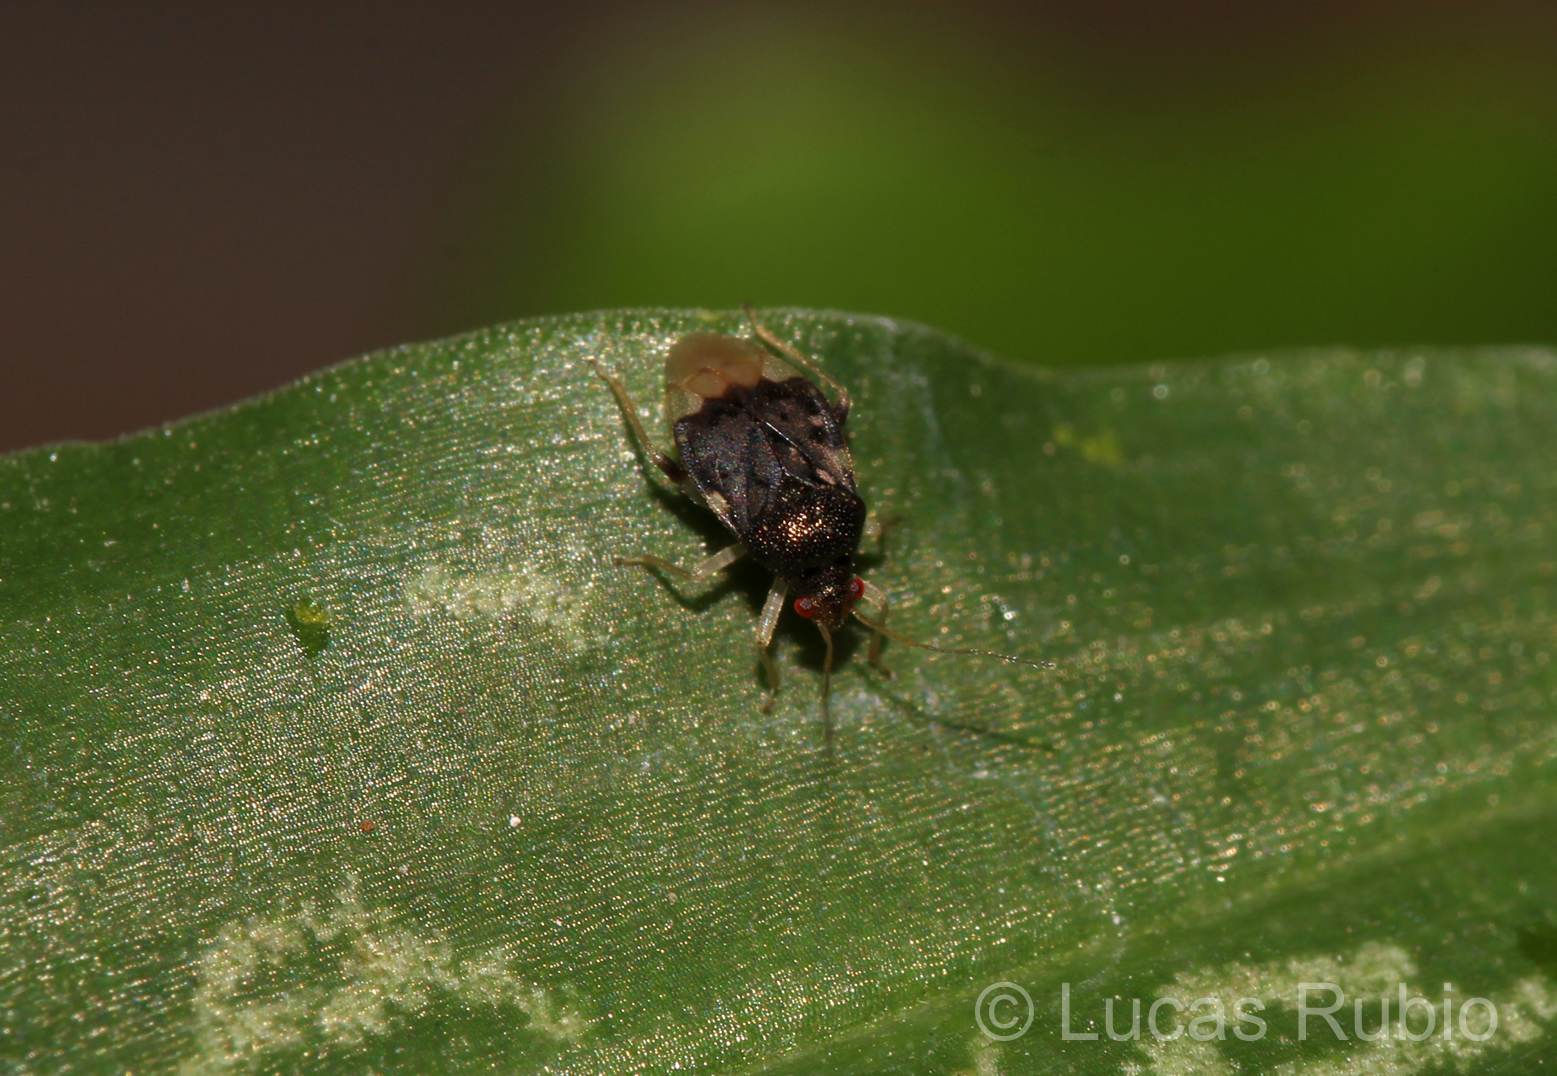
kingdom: Animalia
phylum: Arthropoda
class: Insecta
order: Hemiptera
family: Miridae
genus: Pycnoderes
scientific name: Pycnoderes albipes
